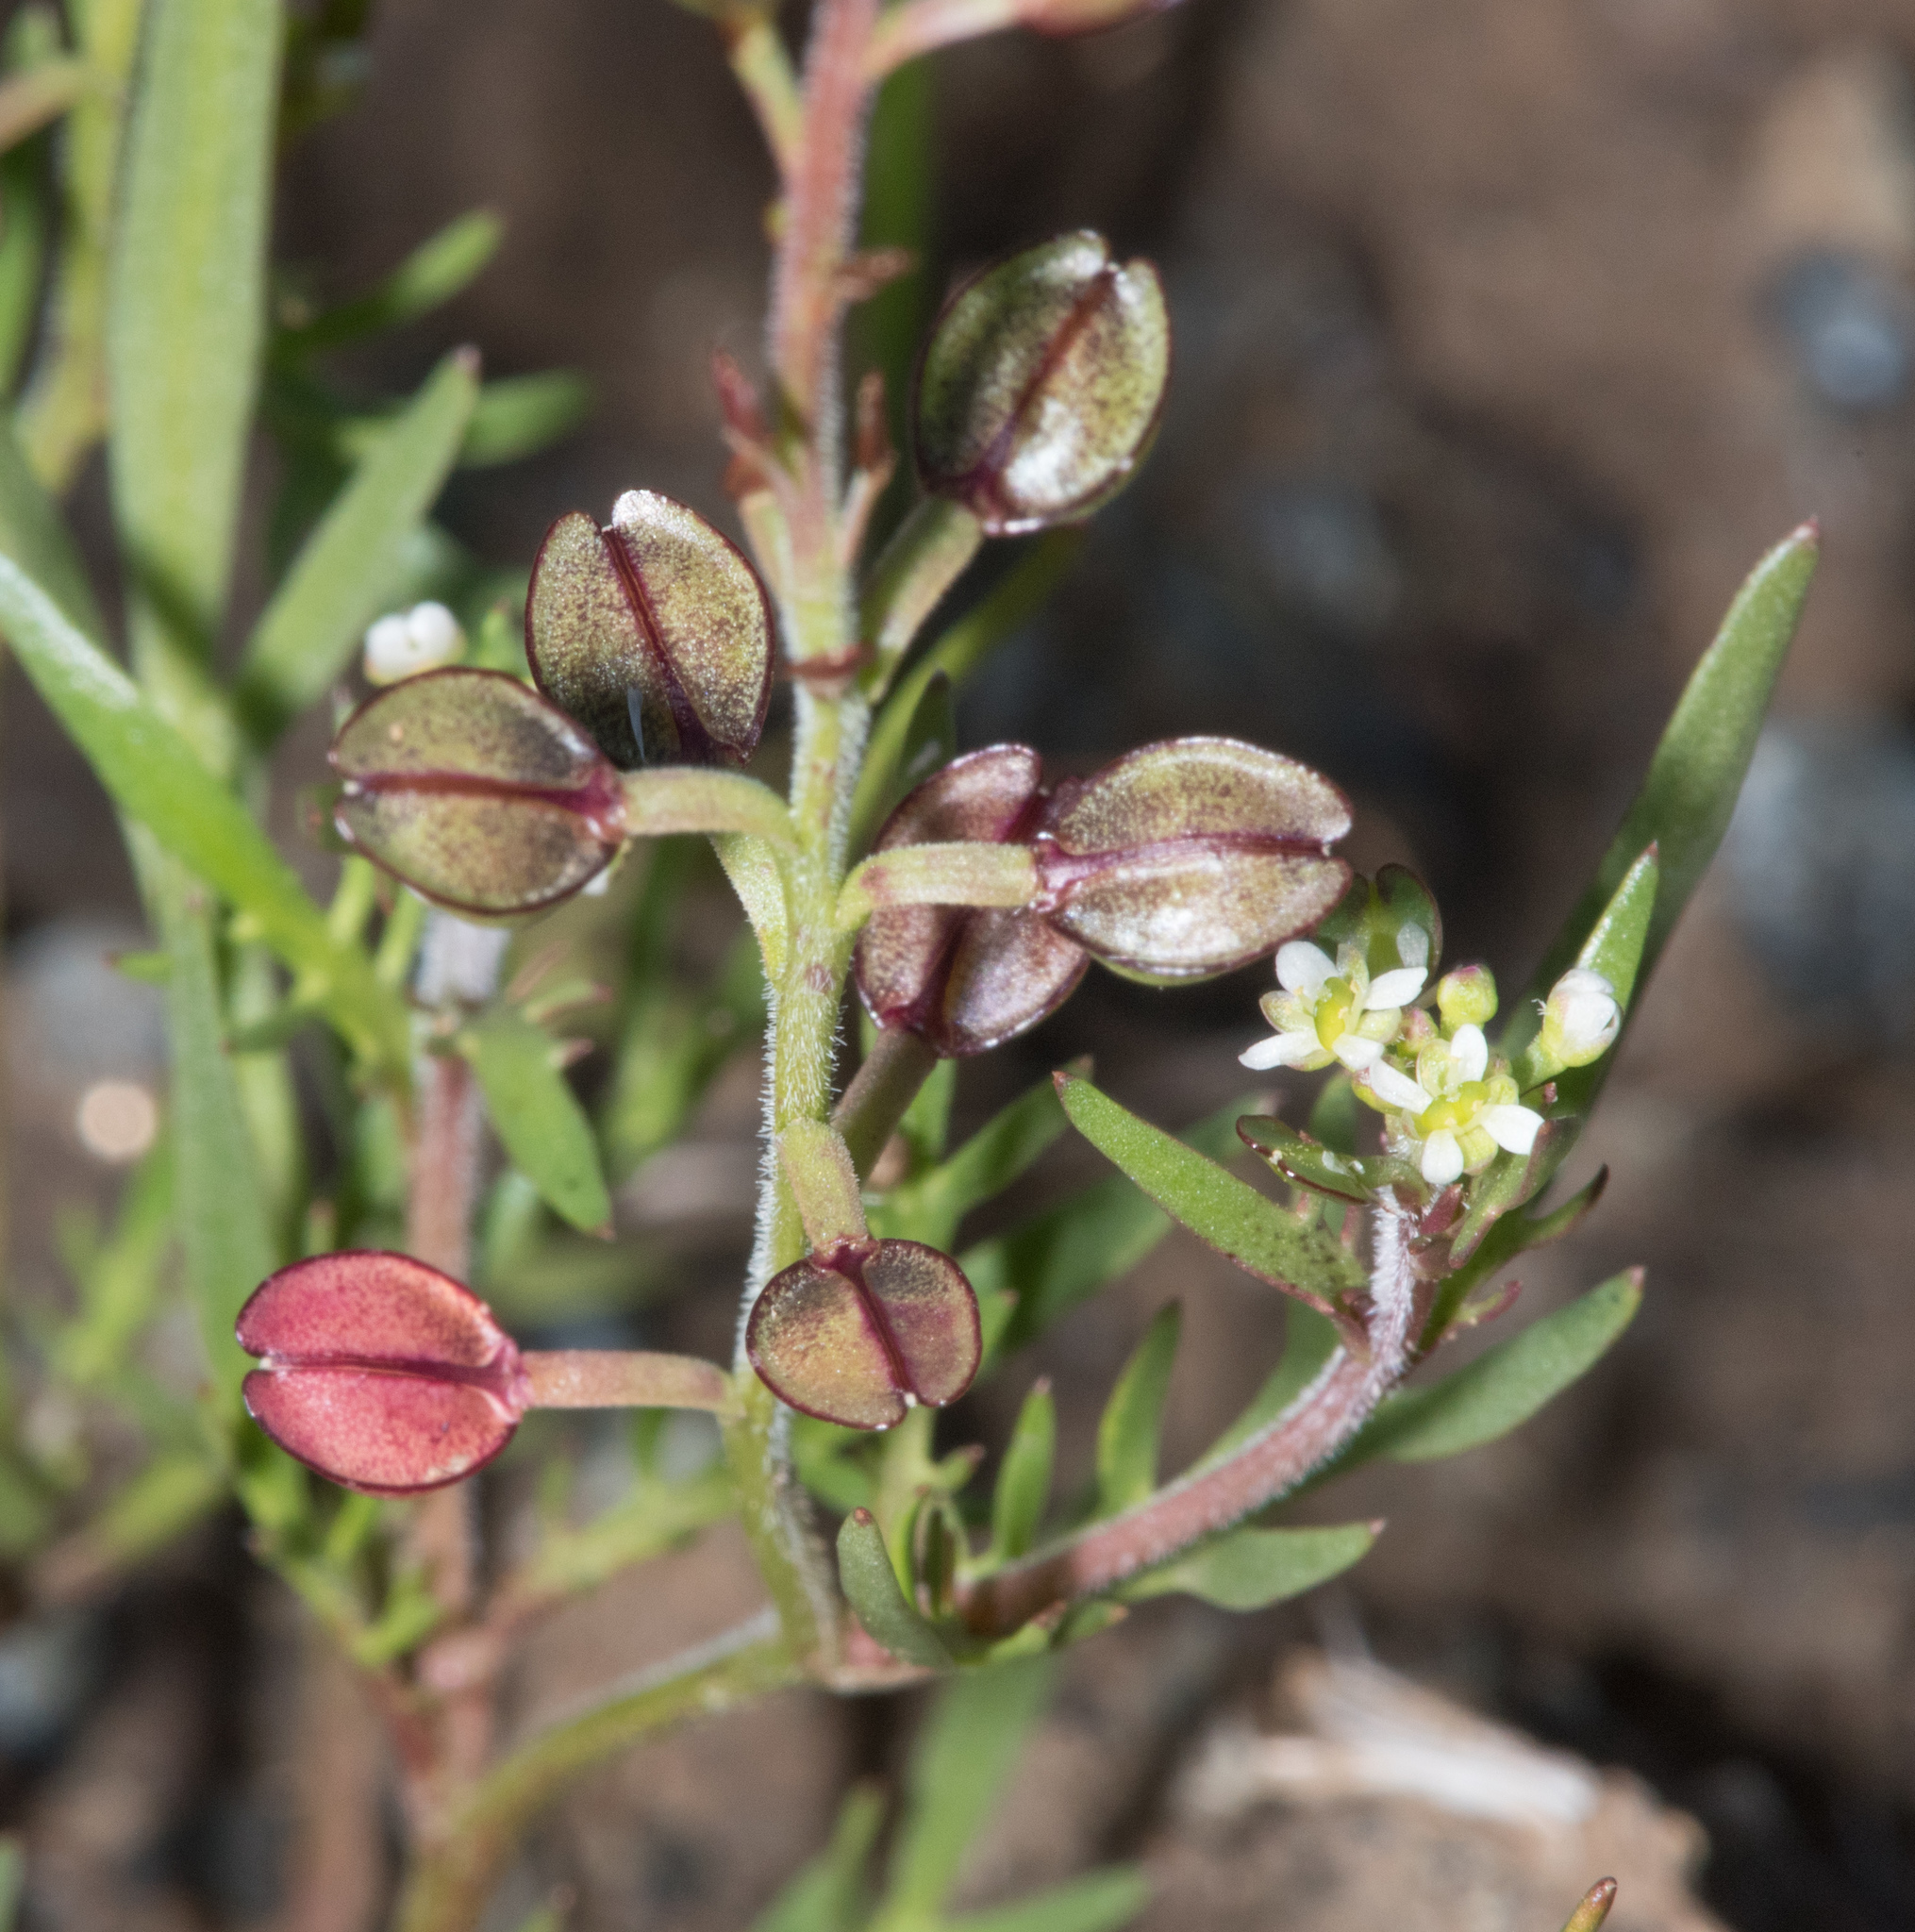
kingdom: Plantae
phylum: Tracheophyta
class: Magnoliopsida
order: Brassicales
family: Brassicaceae
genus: Lepidium
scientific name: Lepidium nitidum
